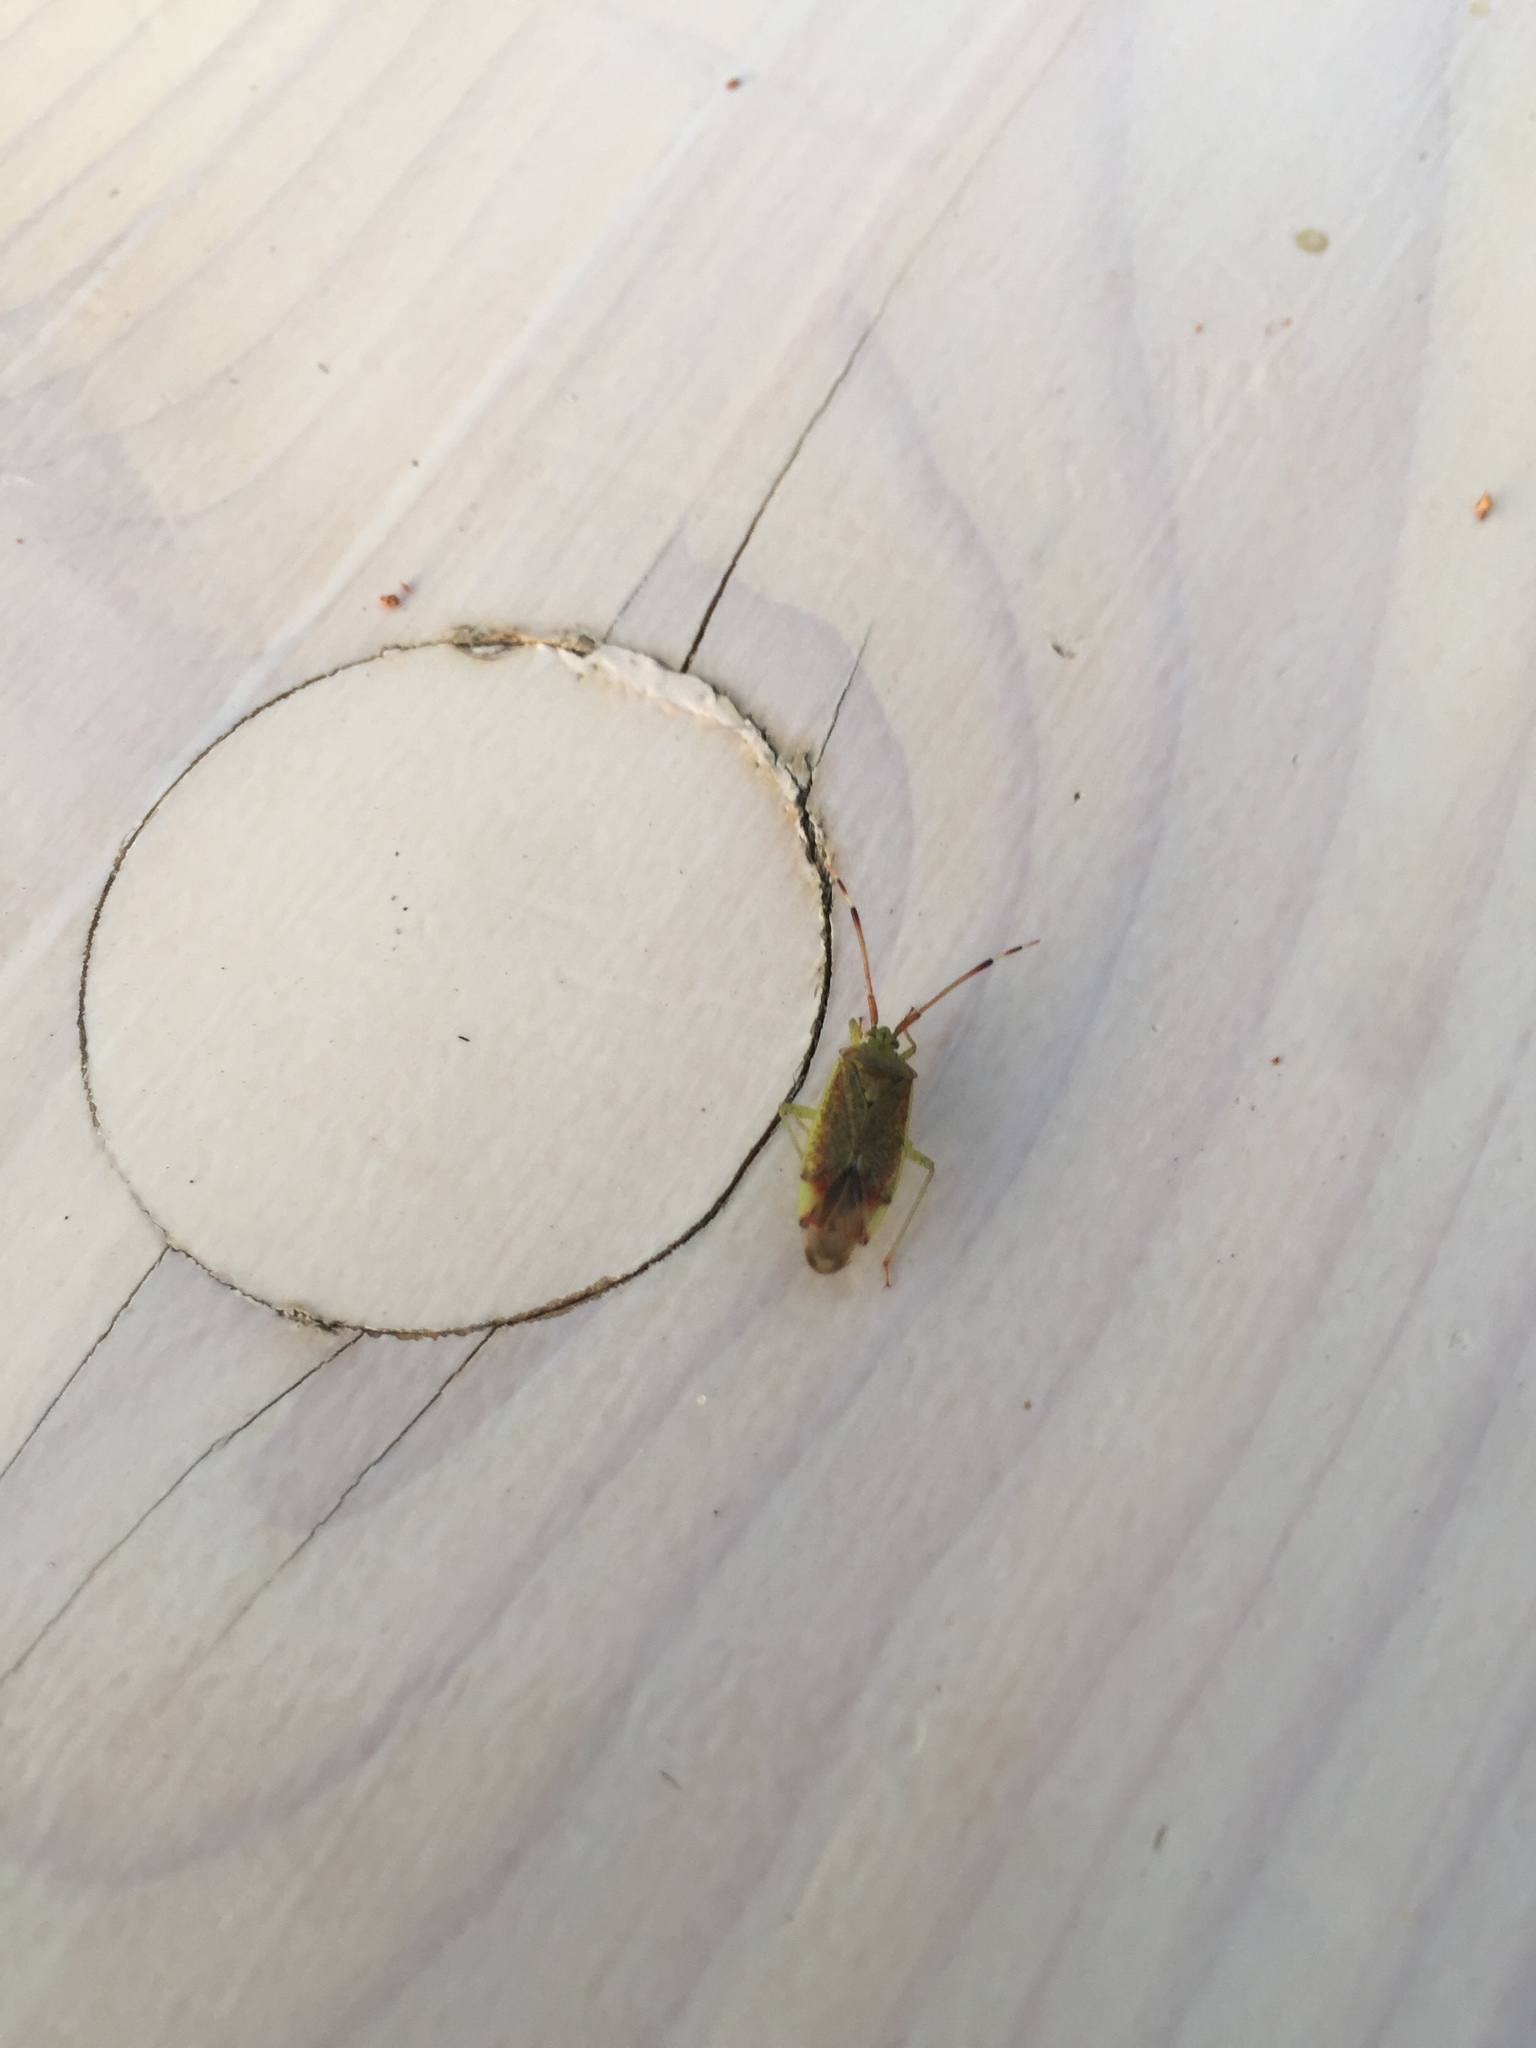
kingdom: Animalia
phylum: Arthropoda
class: Insecta
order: Hemiptera
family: Miridae
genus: Pantilius
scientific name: Pantilius tunicatus
